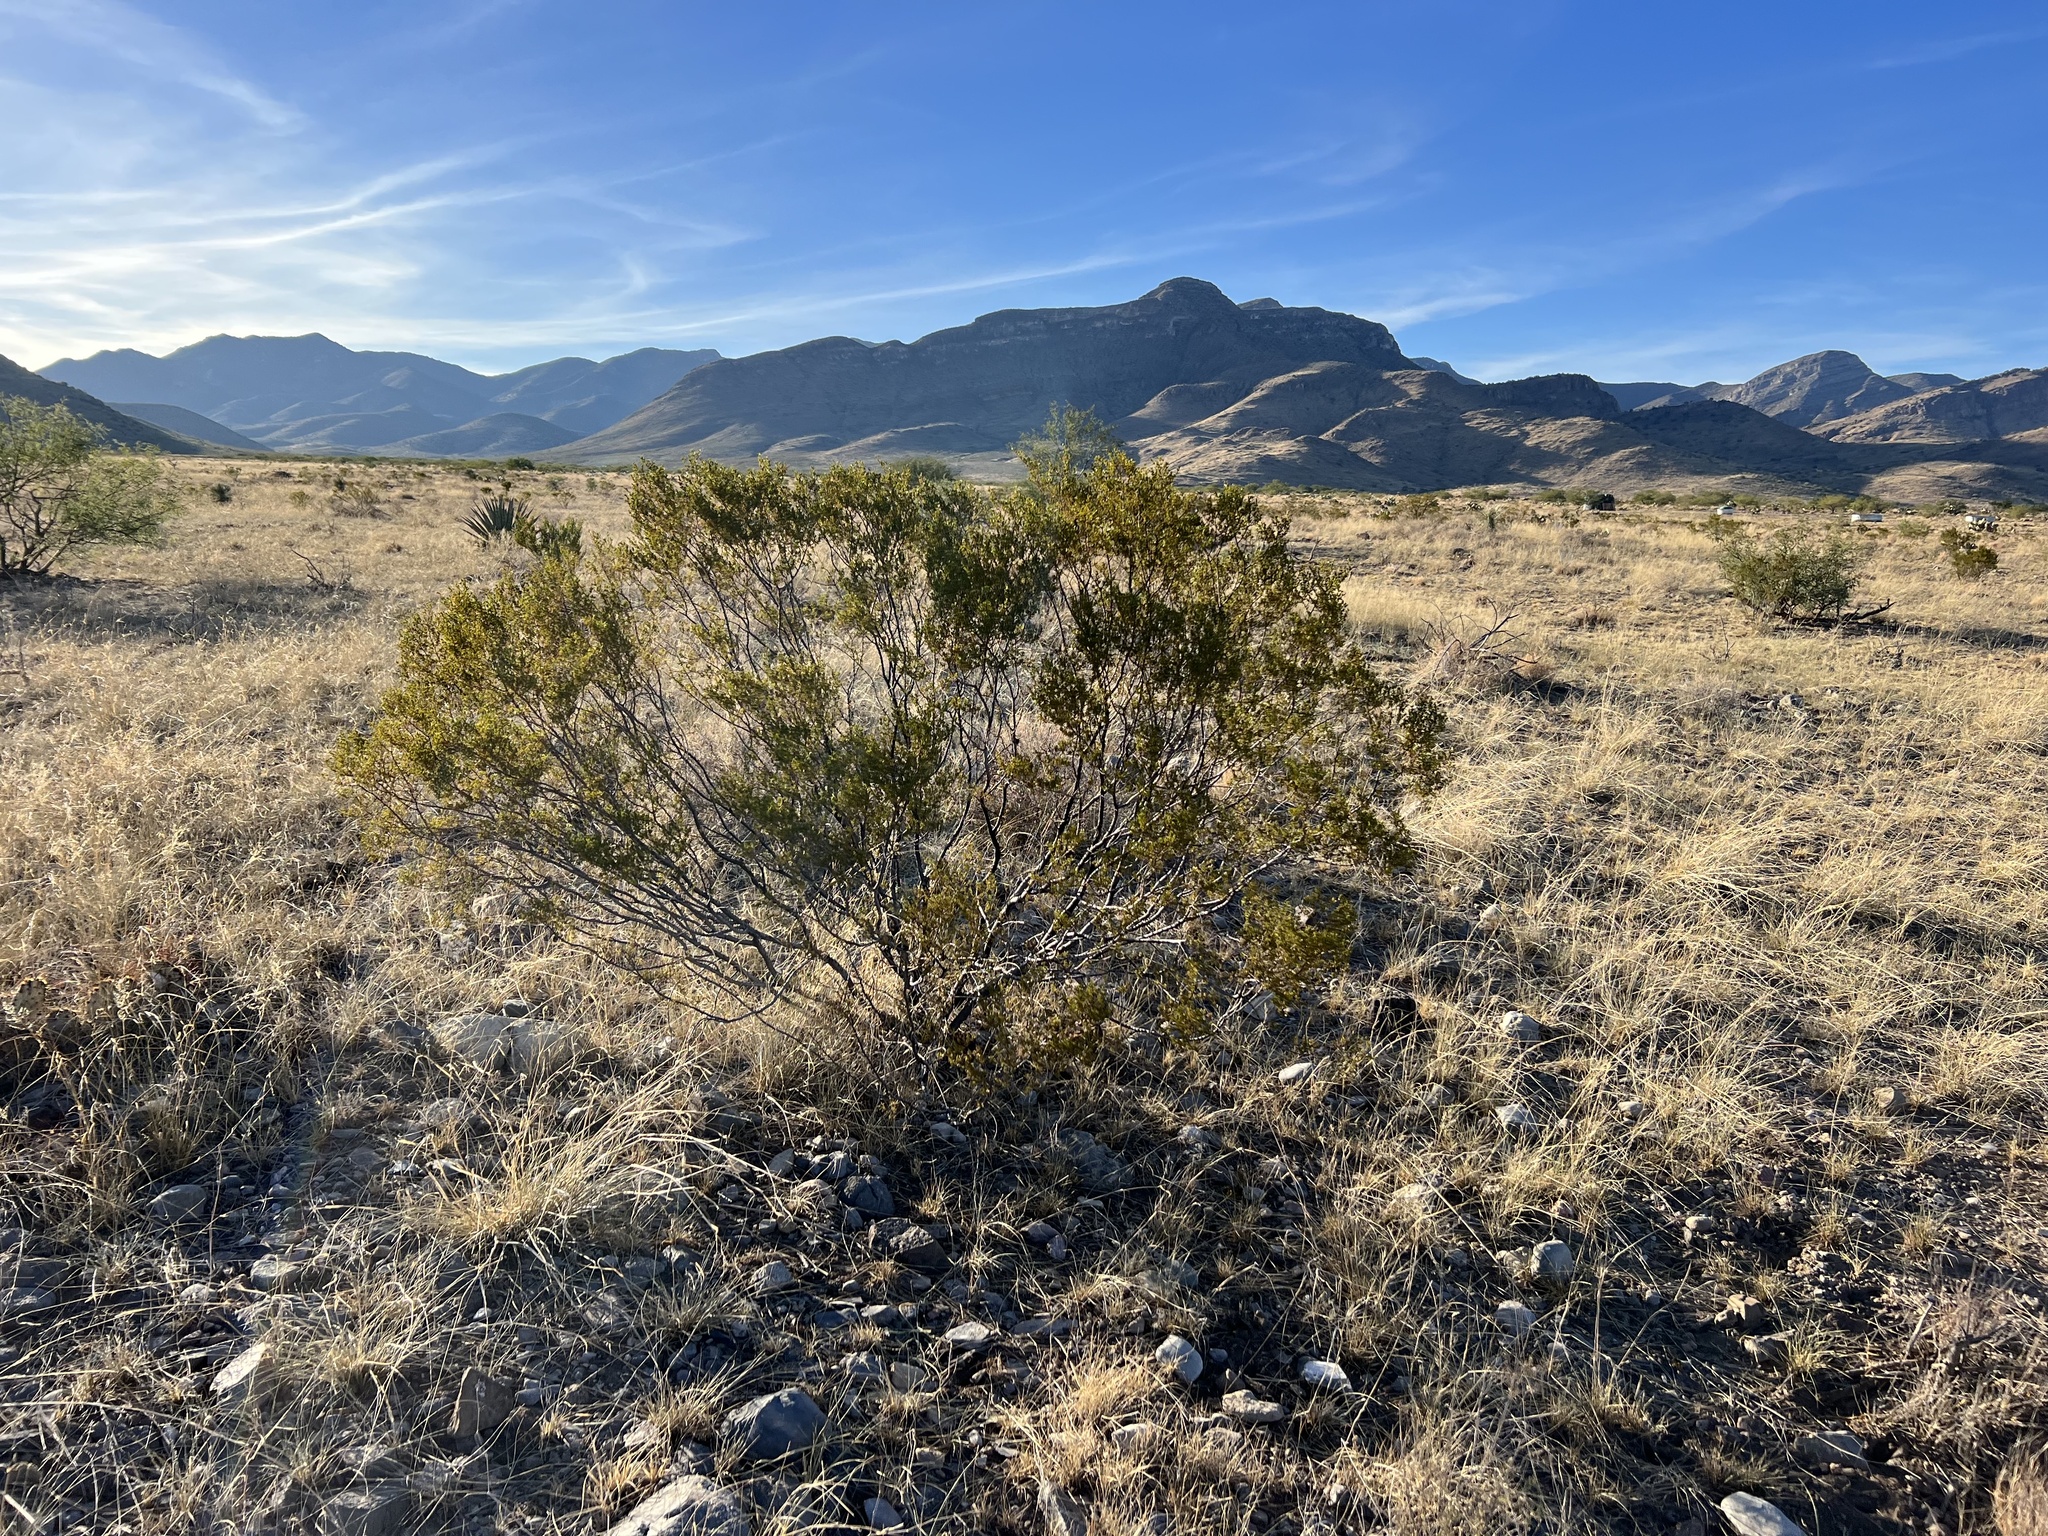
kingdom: Plantae
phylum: Tracheophyta
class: Magnoliopsida
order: Zygophyllales
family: Zygophyllaceae
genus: Larrea
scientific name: Larrea tridentata
